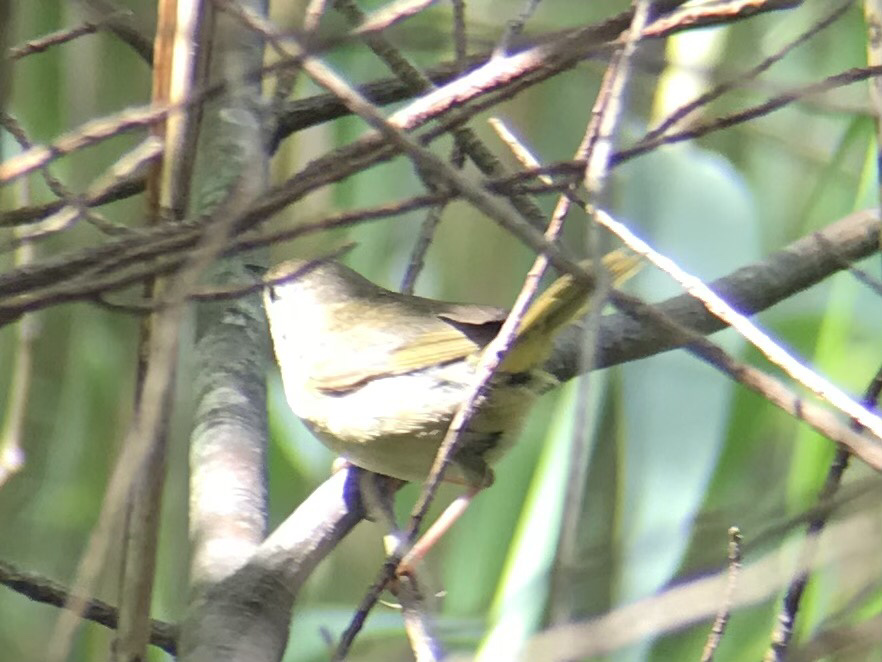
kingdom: Animalia
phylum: Chordata
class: Aves
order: Passeriformes
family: Parulidae
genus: Geothlypis
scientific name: Geothlypis trichas
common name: Common yellowthroat
